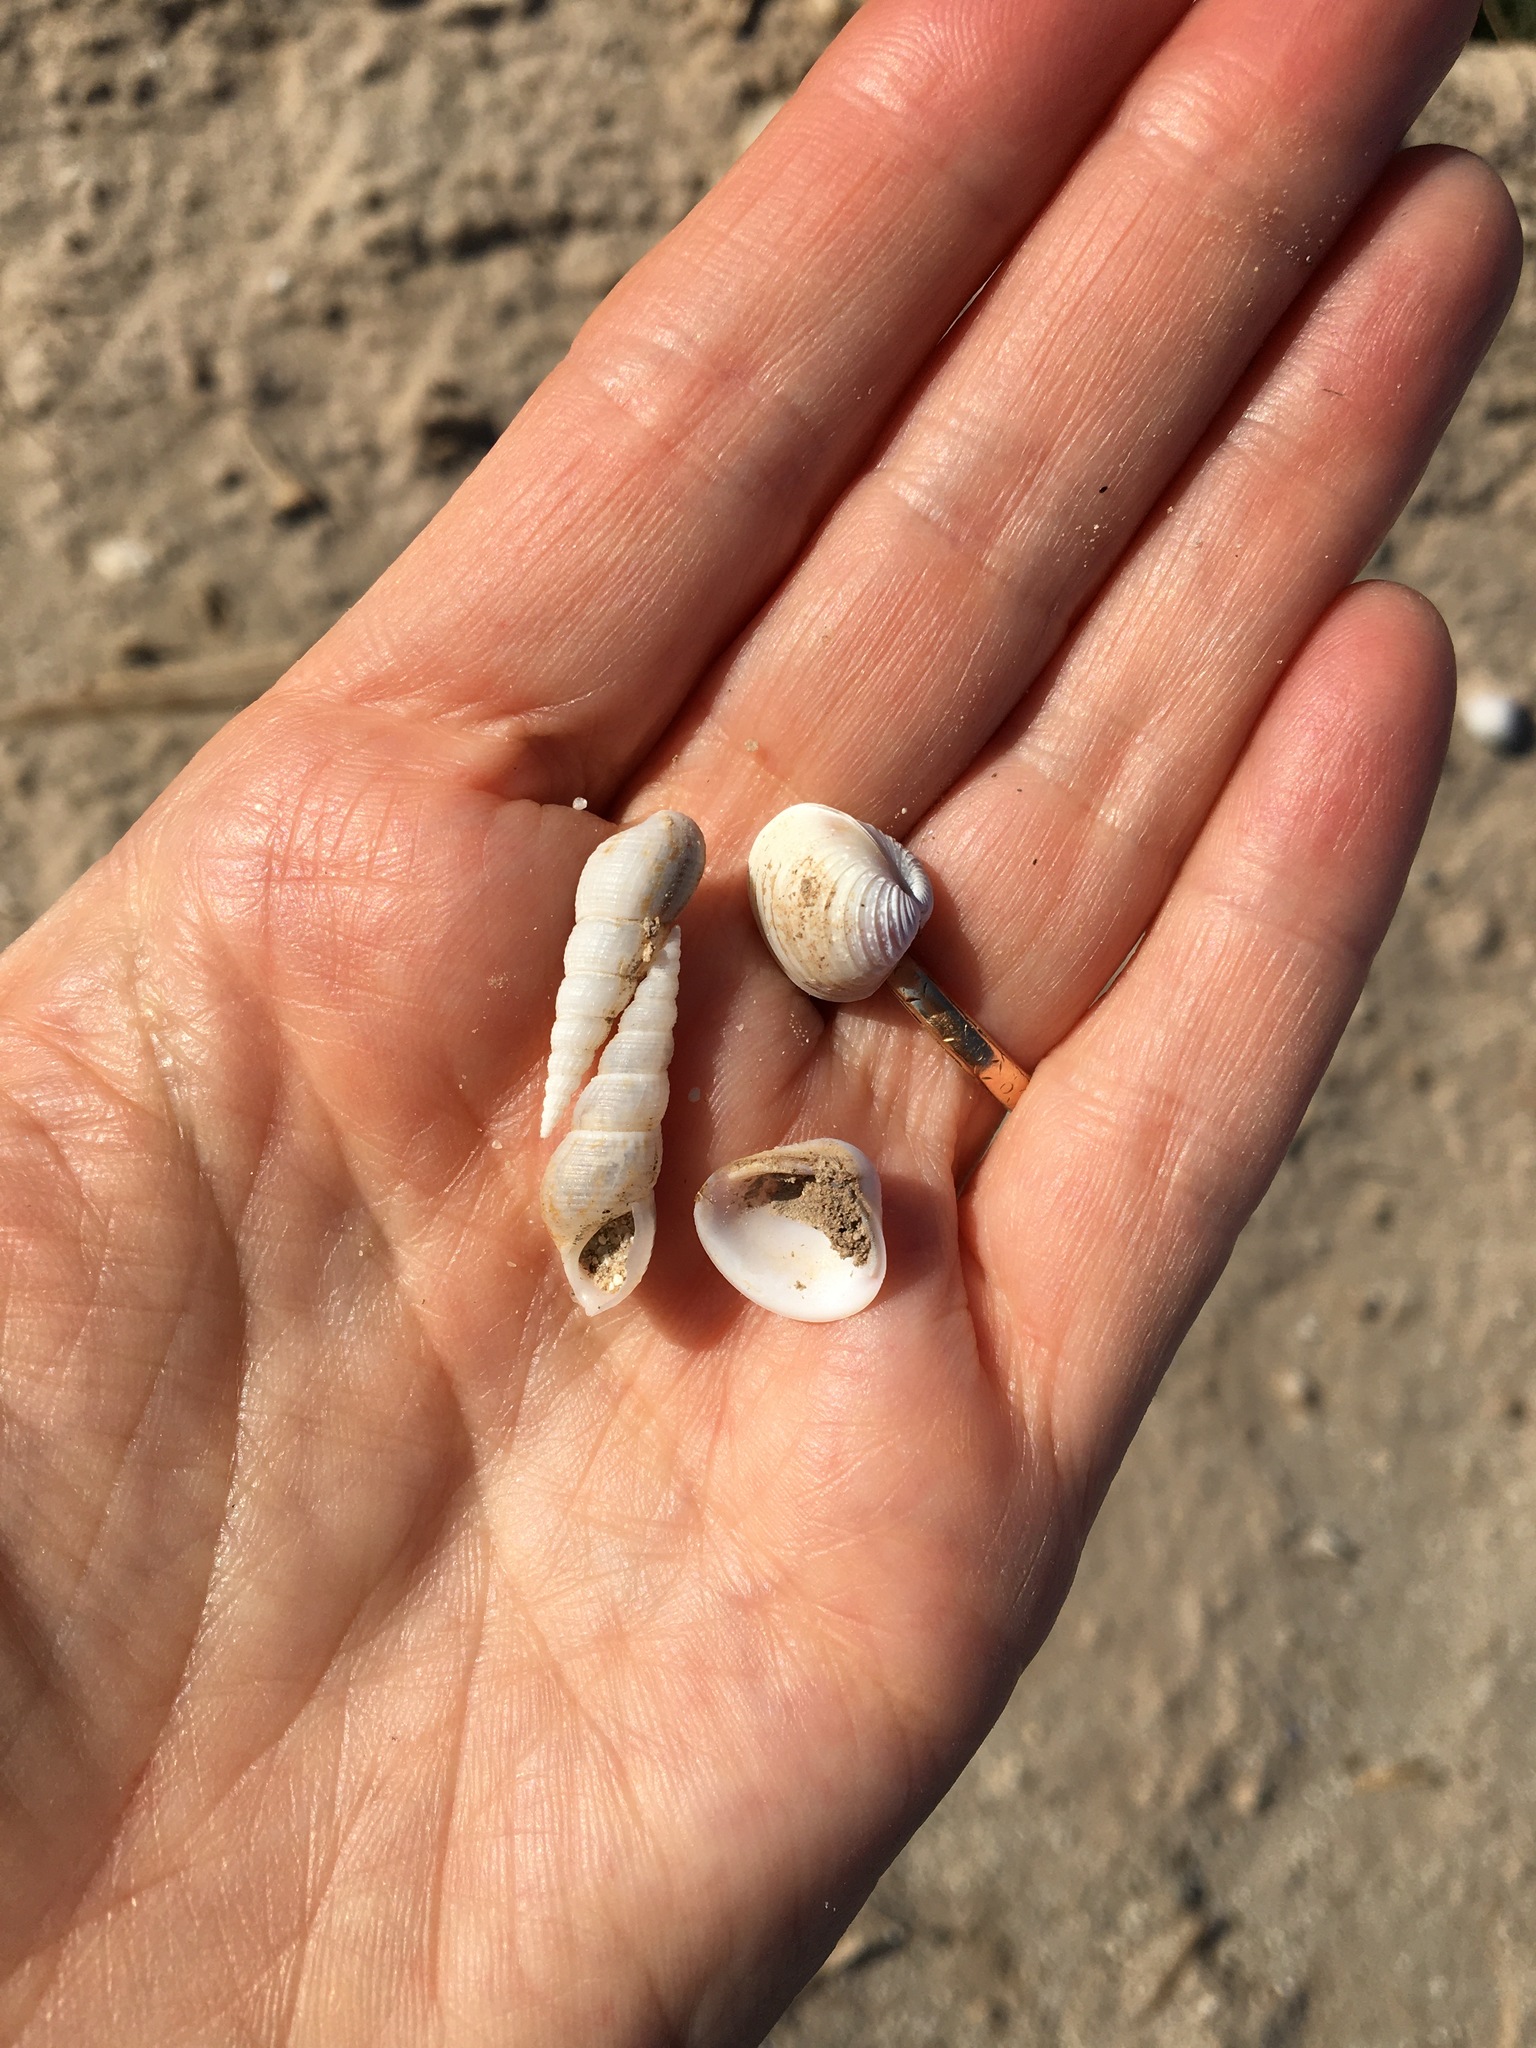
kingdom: Animalia
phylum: Mollusca
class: Bivalvia
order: Venerida
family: Cyrenidae
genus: Corbicula
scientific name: Corbicula fluminea
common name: Asian clam
